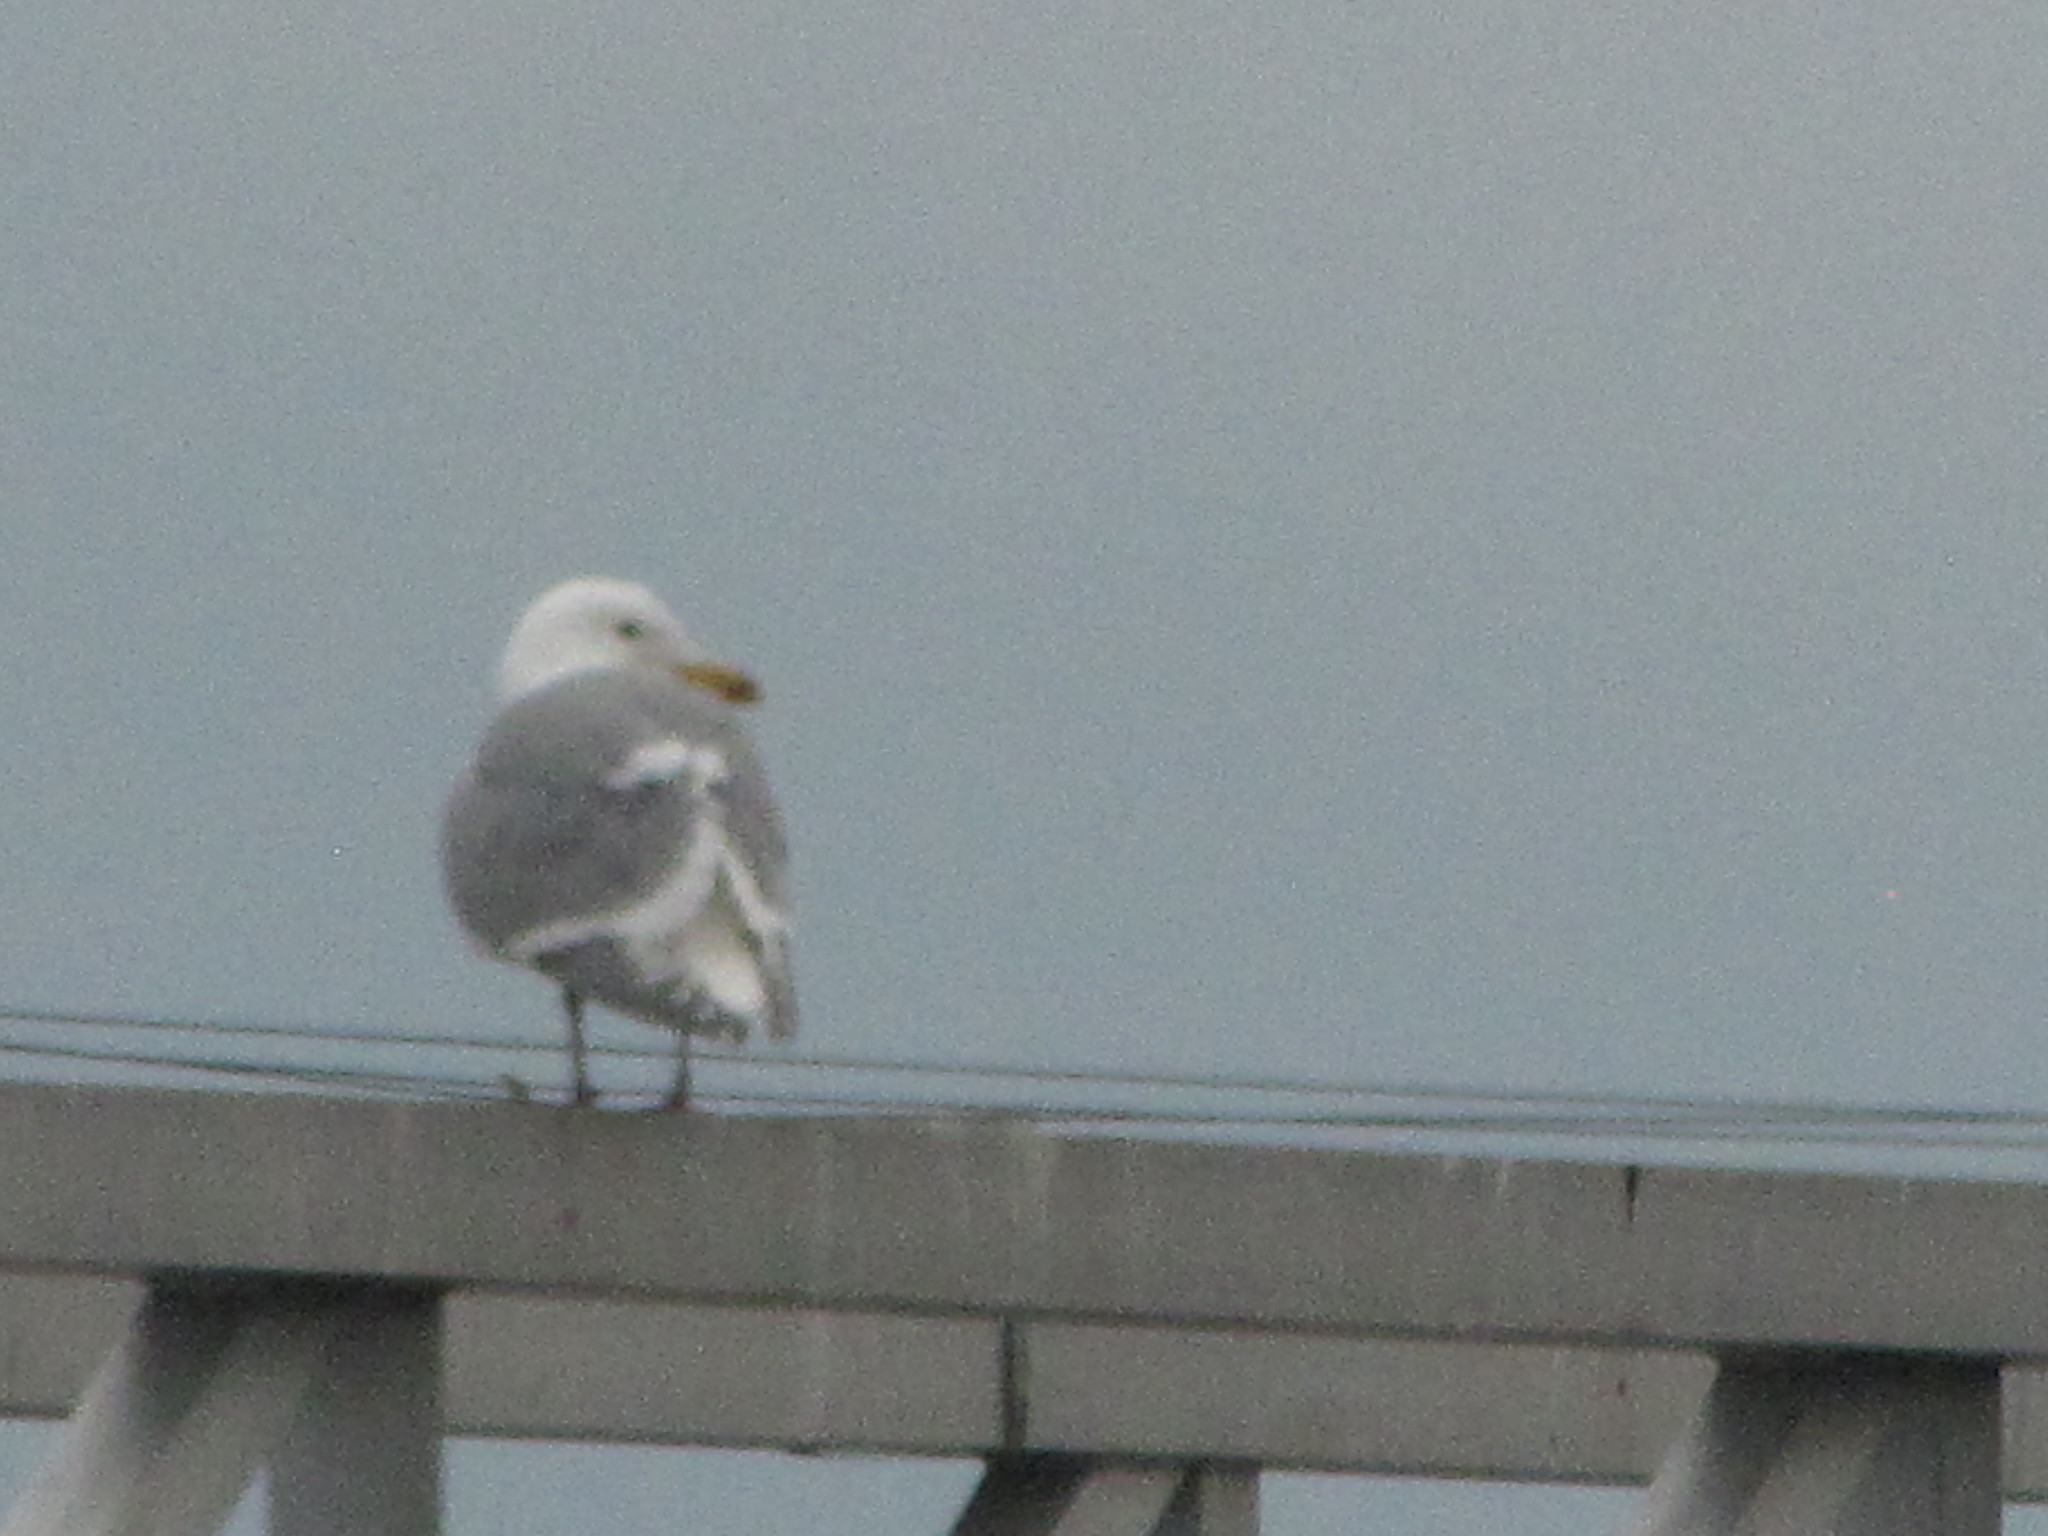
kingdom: Animalia
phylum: Chordata
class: Aves
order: Charadriiformes
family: Laridae
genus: Larus
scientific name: Larus glaucescens
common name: Glaucous-winged gull
